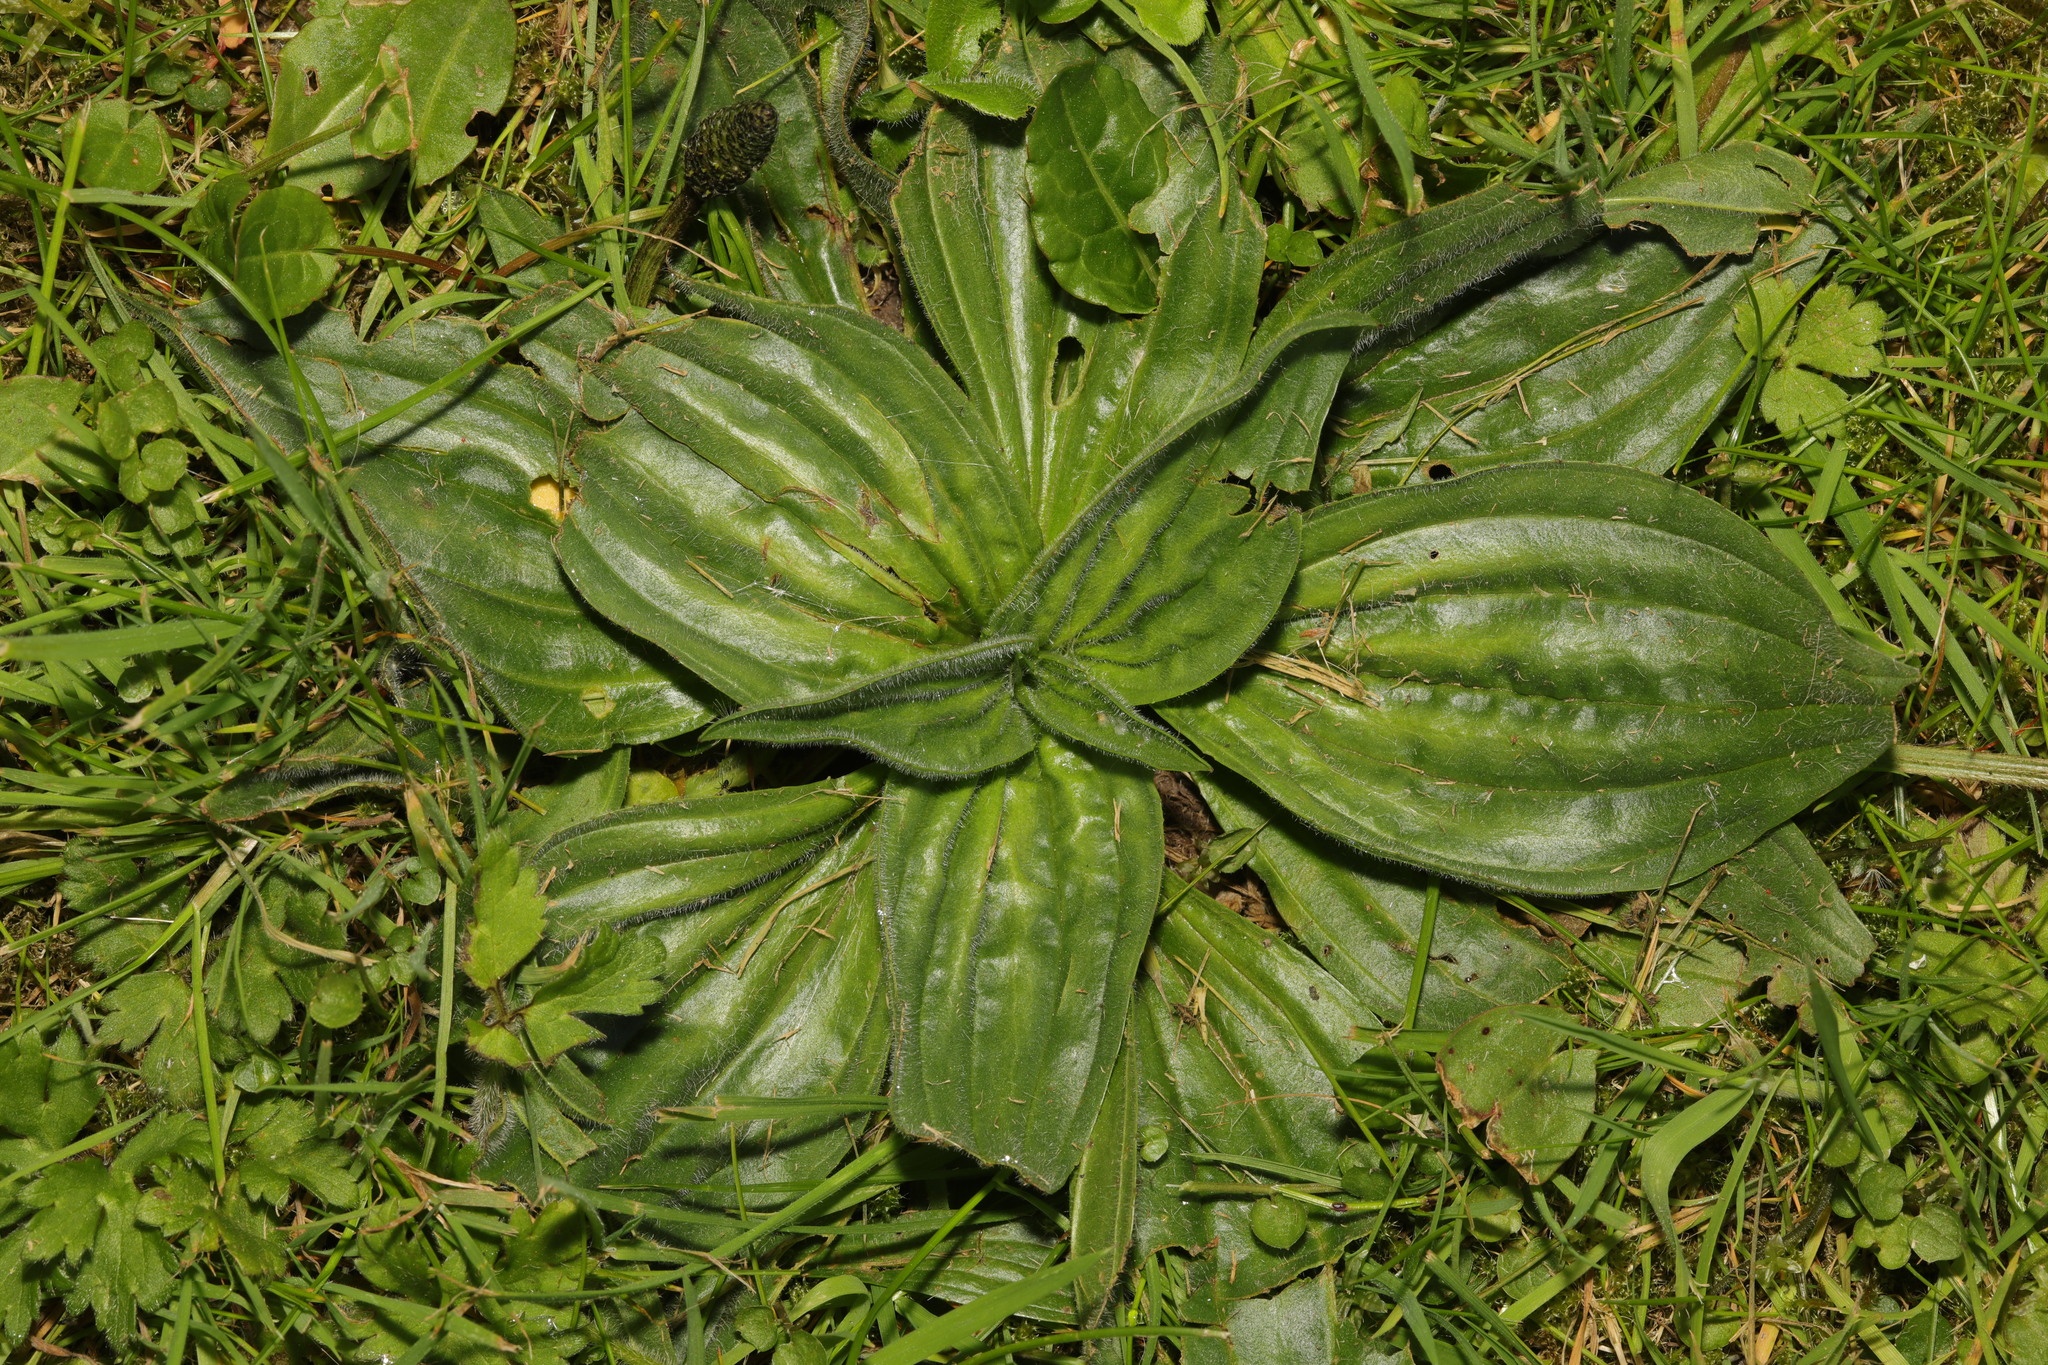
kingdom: Plantae
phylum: Tracheophyta
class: Magnoliopsida
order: Lamiales
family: Plantaginaceae
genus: Plantago
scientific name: Plantago media
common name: Hoary plantain
